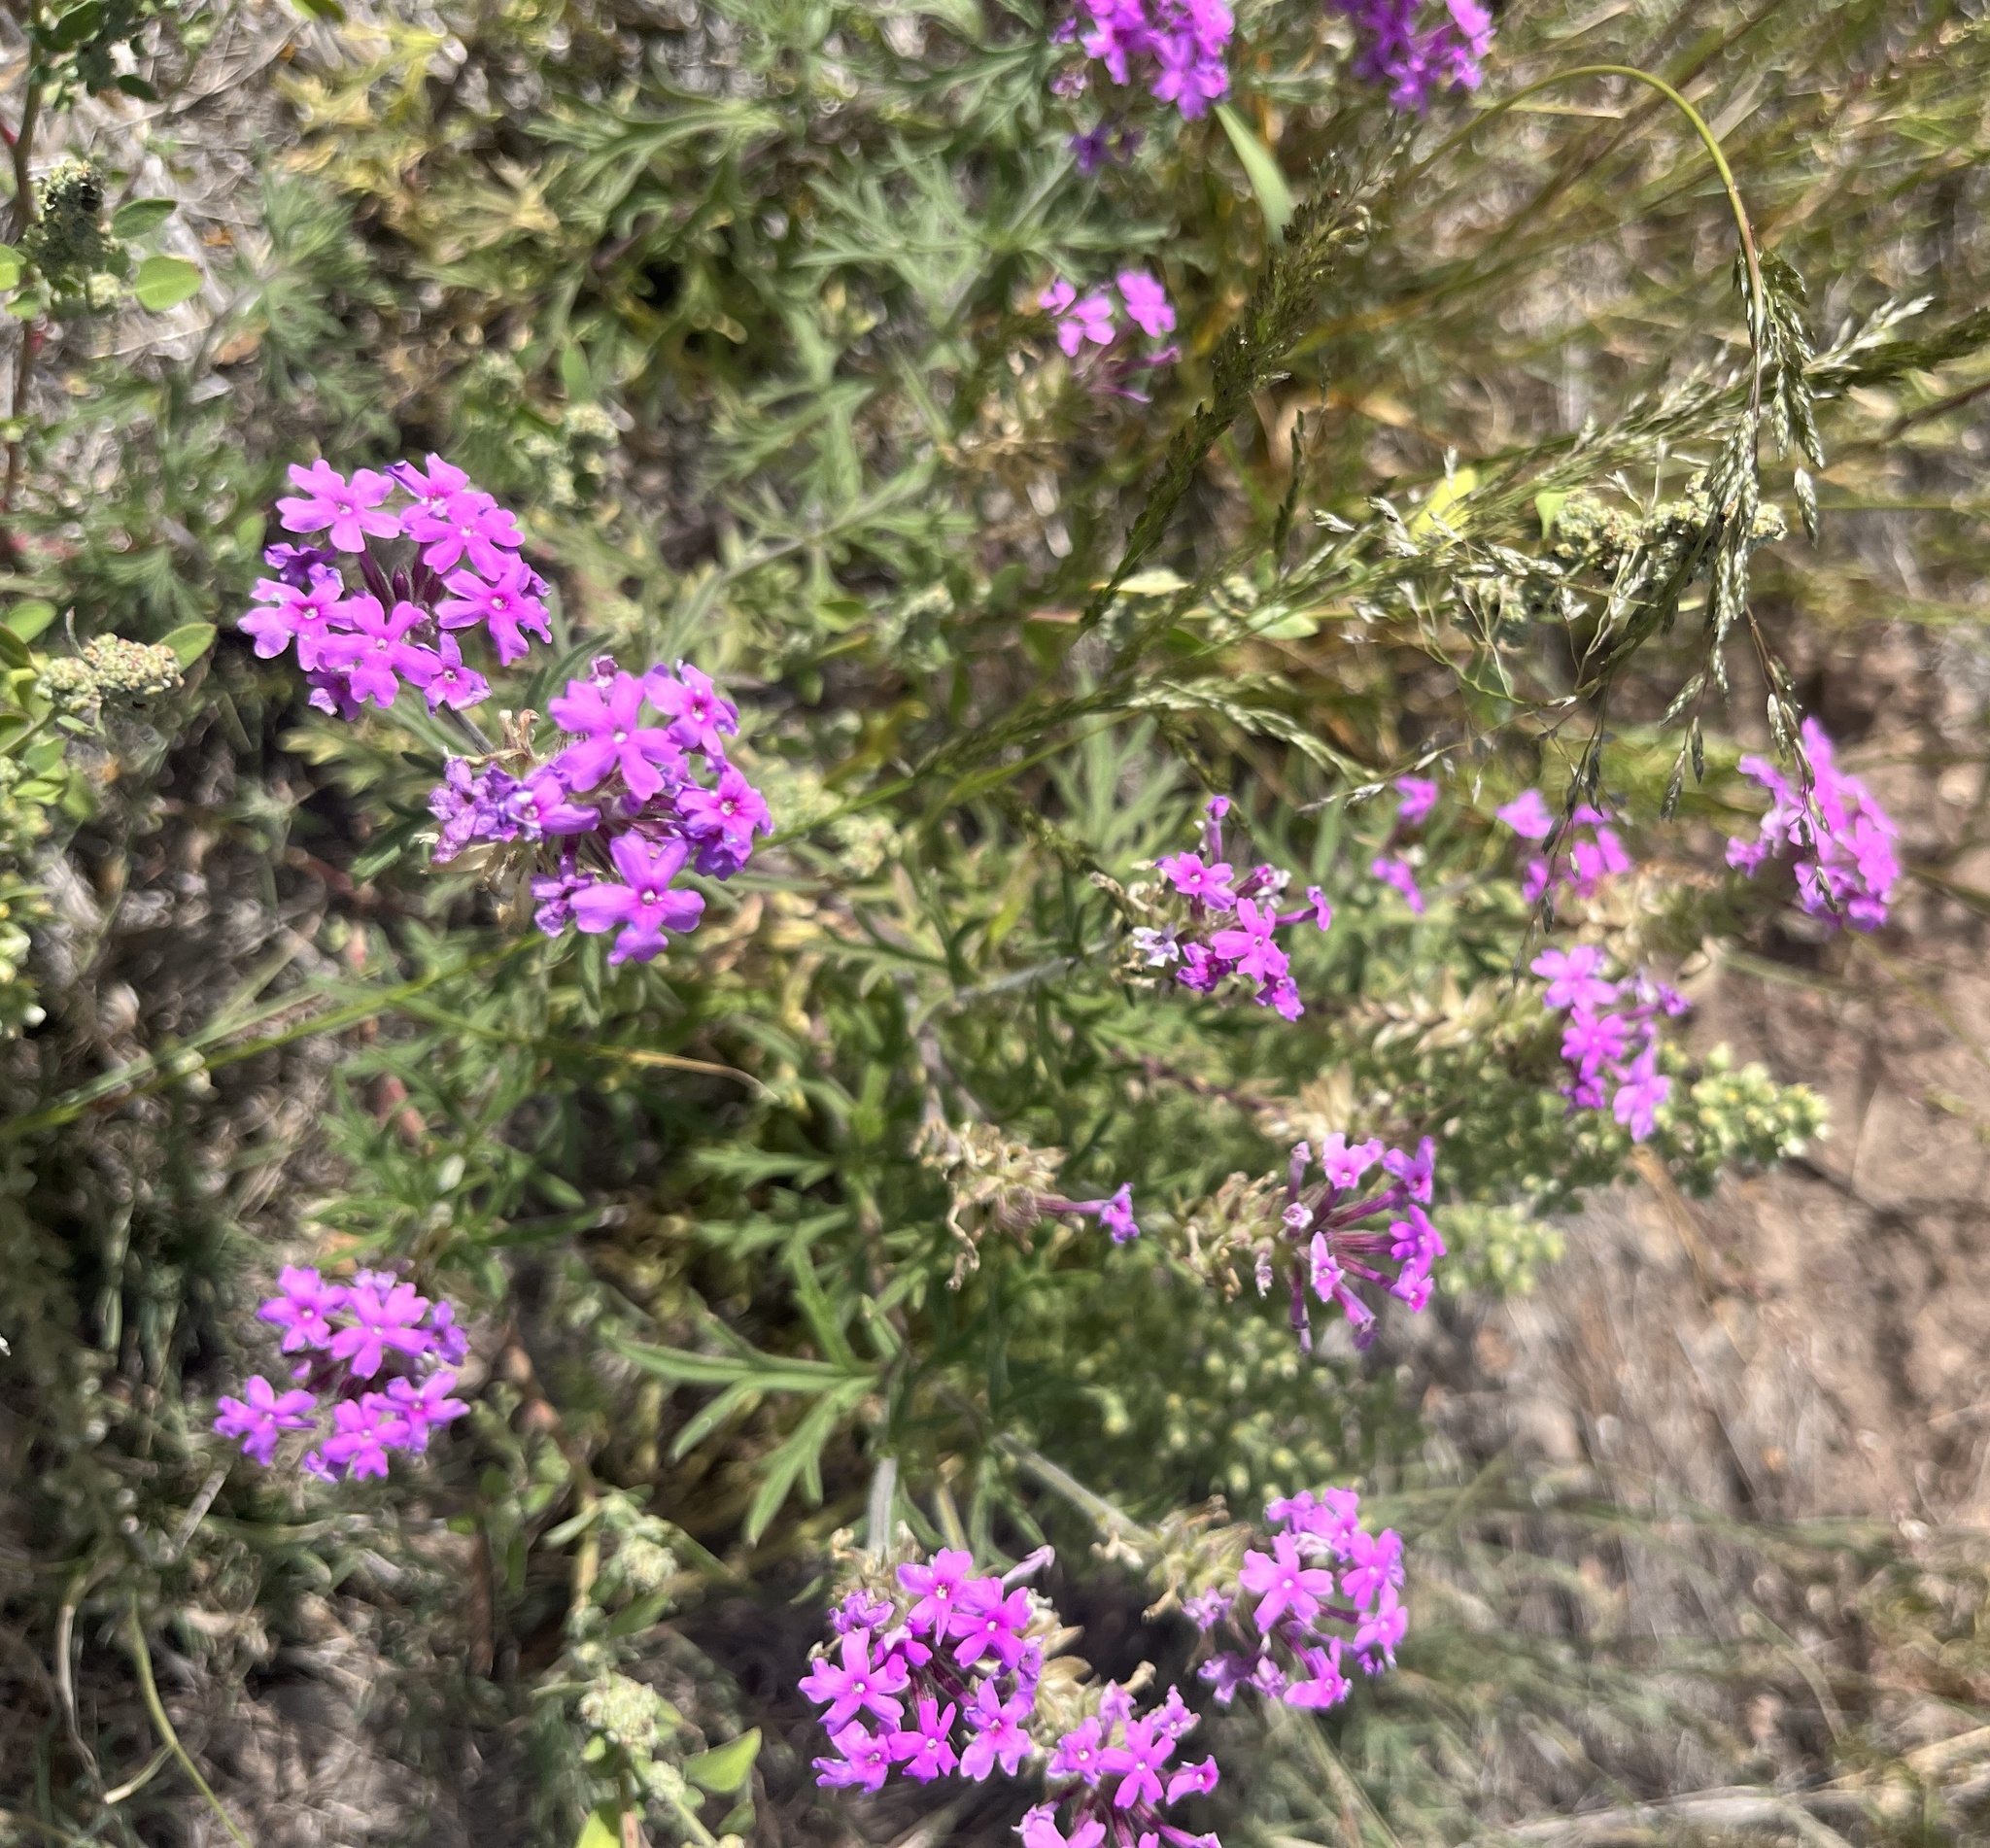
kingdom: Plantae
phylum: Tracheophyta
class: Magnoliopsida
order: Lamiales
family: Verbenaceae
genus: Verbena
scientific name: Verbena bipinnatifida
